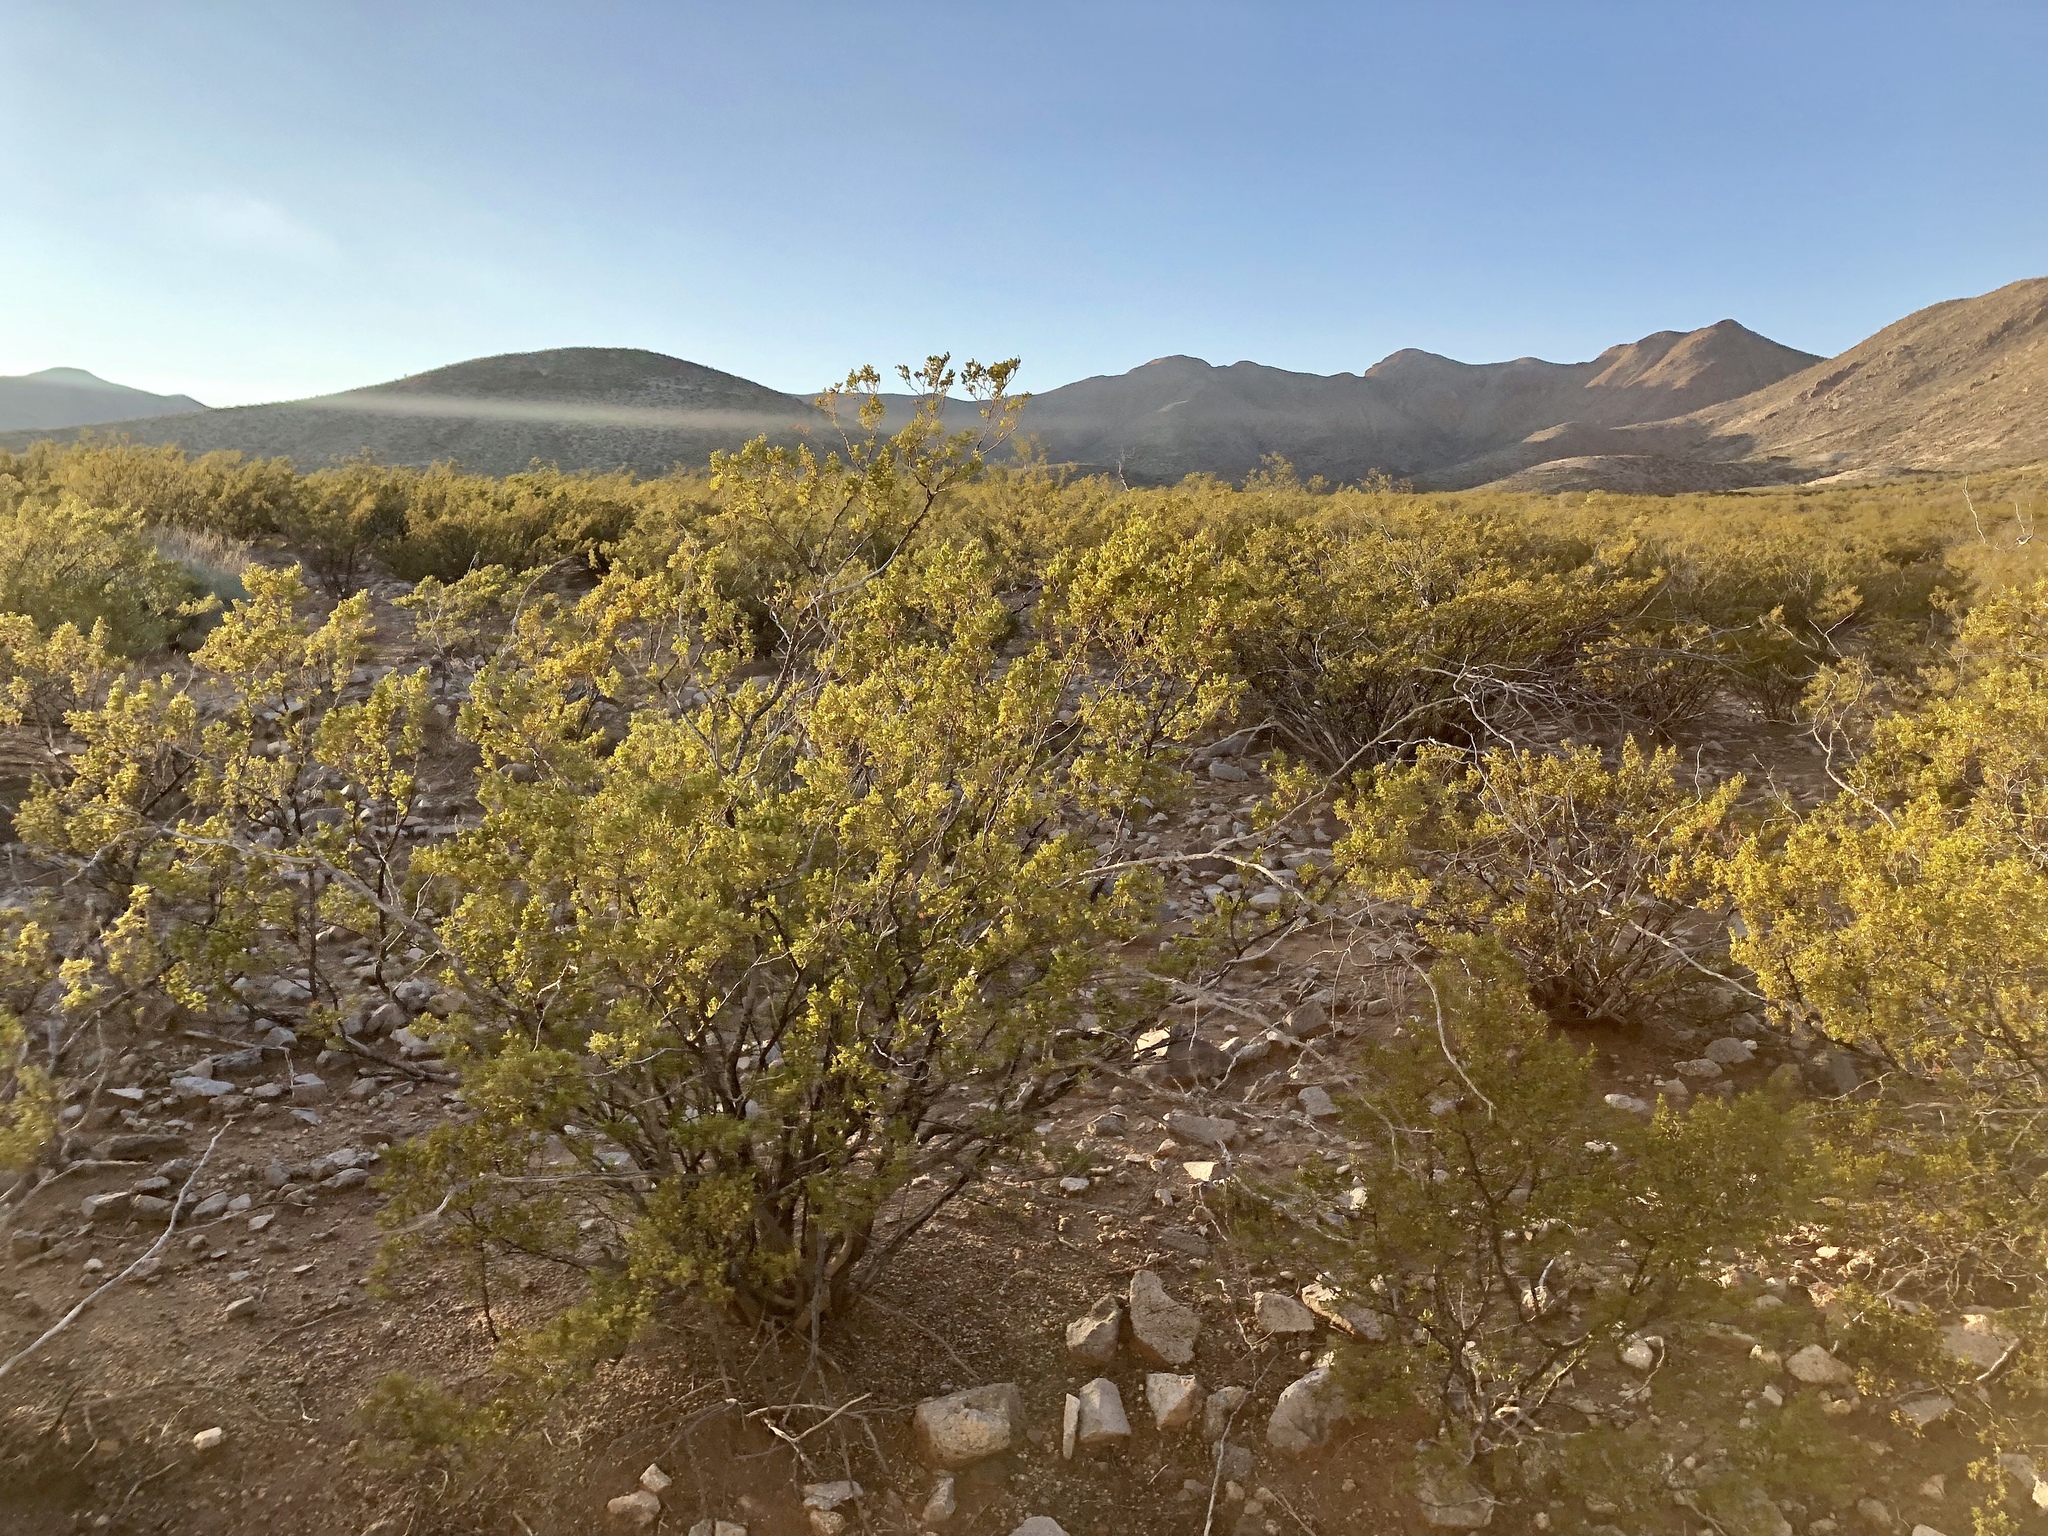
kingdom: Plantae
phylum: Tracheophyta
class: Magnoliopsida
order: Zygophyllales
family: Zygophyllaceae
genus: Larrea
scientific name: Larrea tridentata
